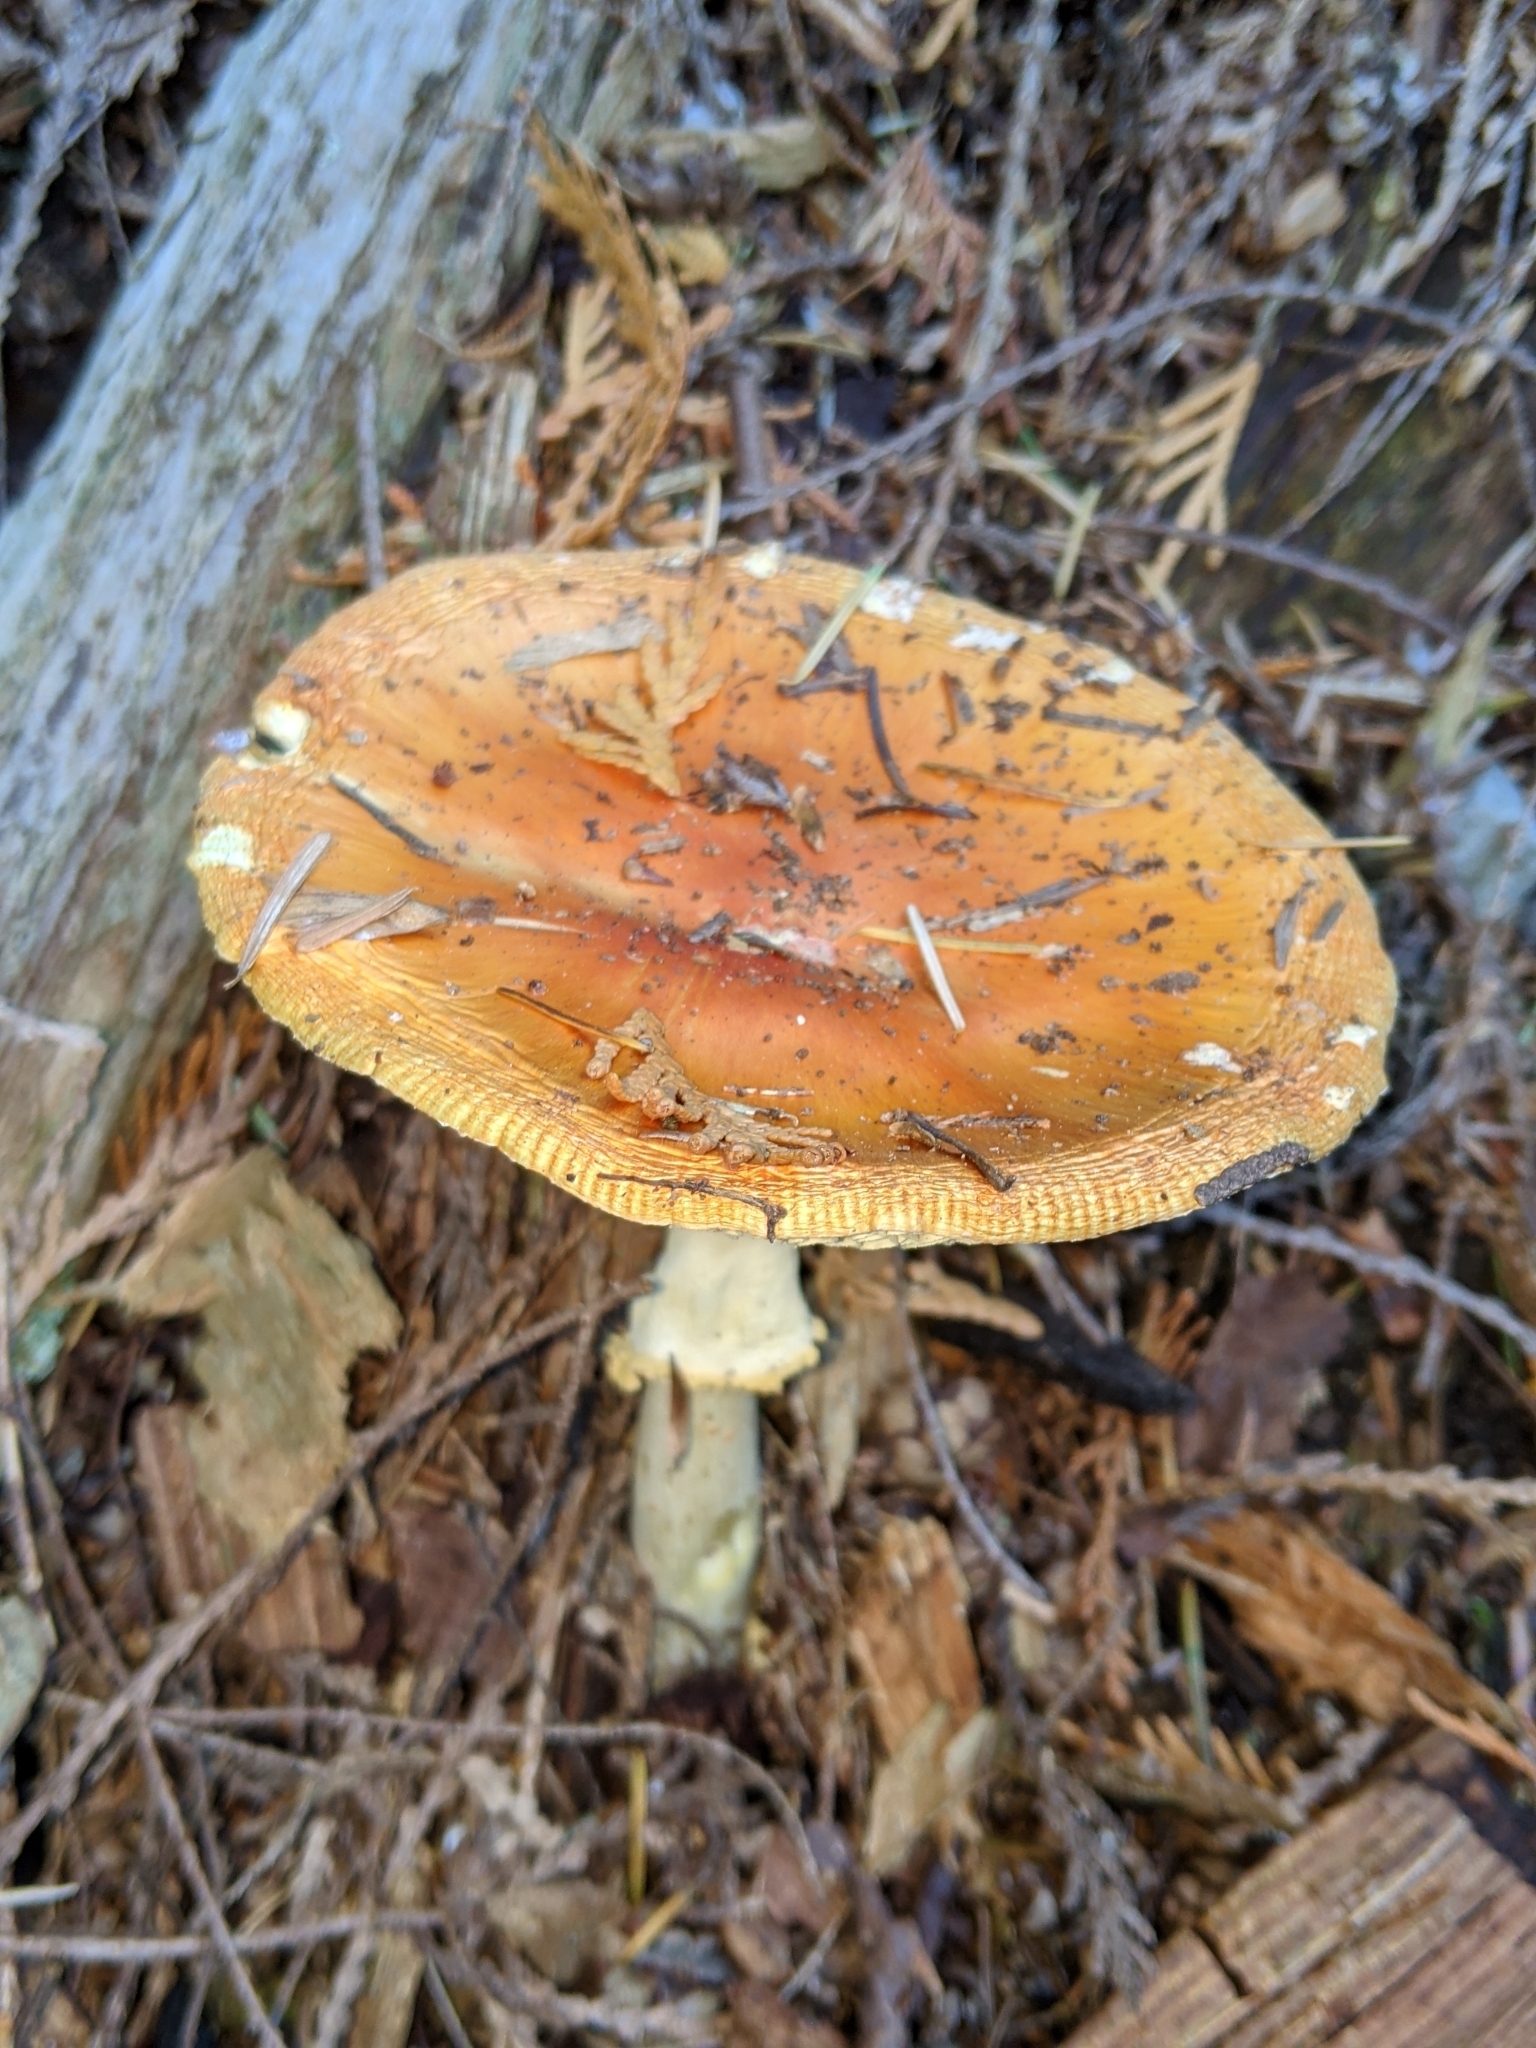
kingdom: Fungi
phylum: Basidiomycota
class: Agaricomycetes
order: Agaricales
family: Amanitaceae
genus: Amanita
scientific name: Amanita muscaria
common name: Fly agaric
